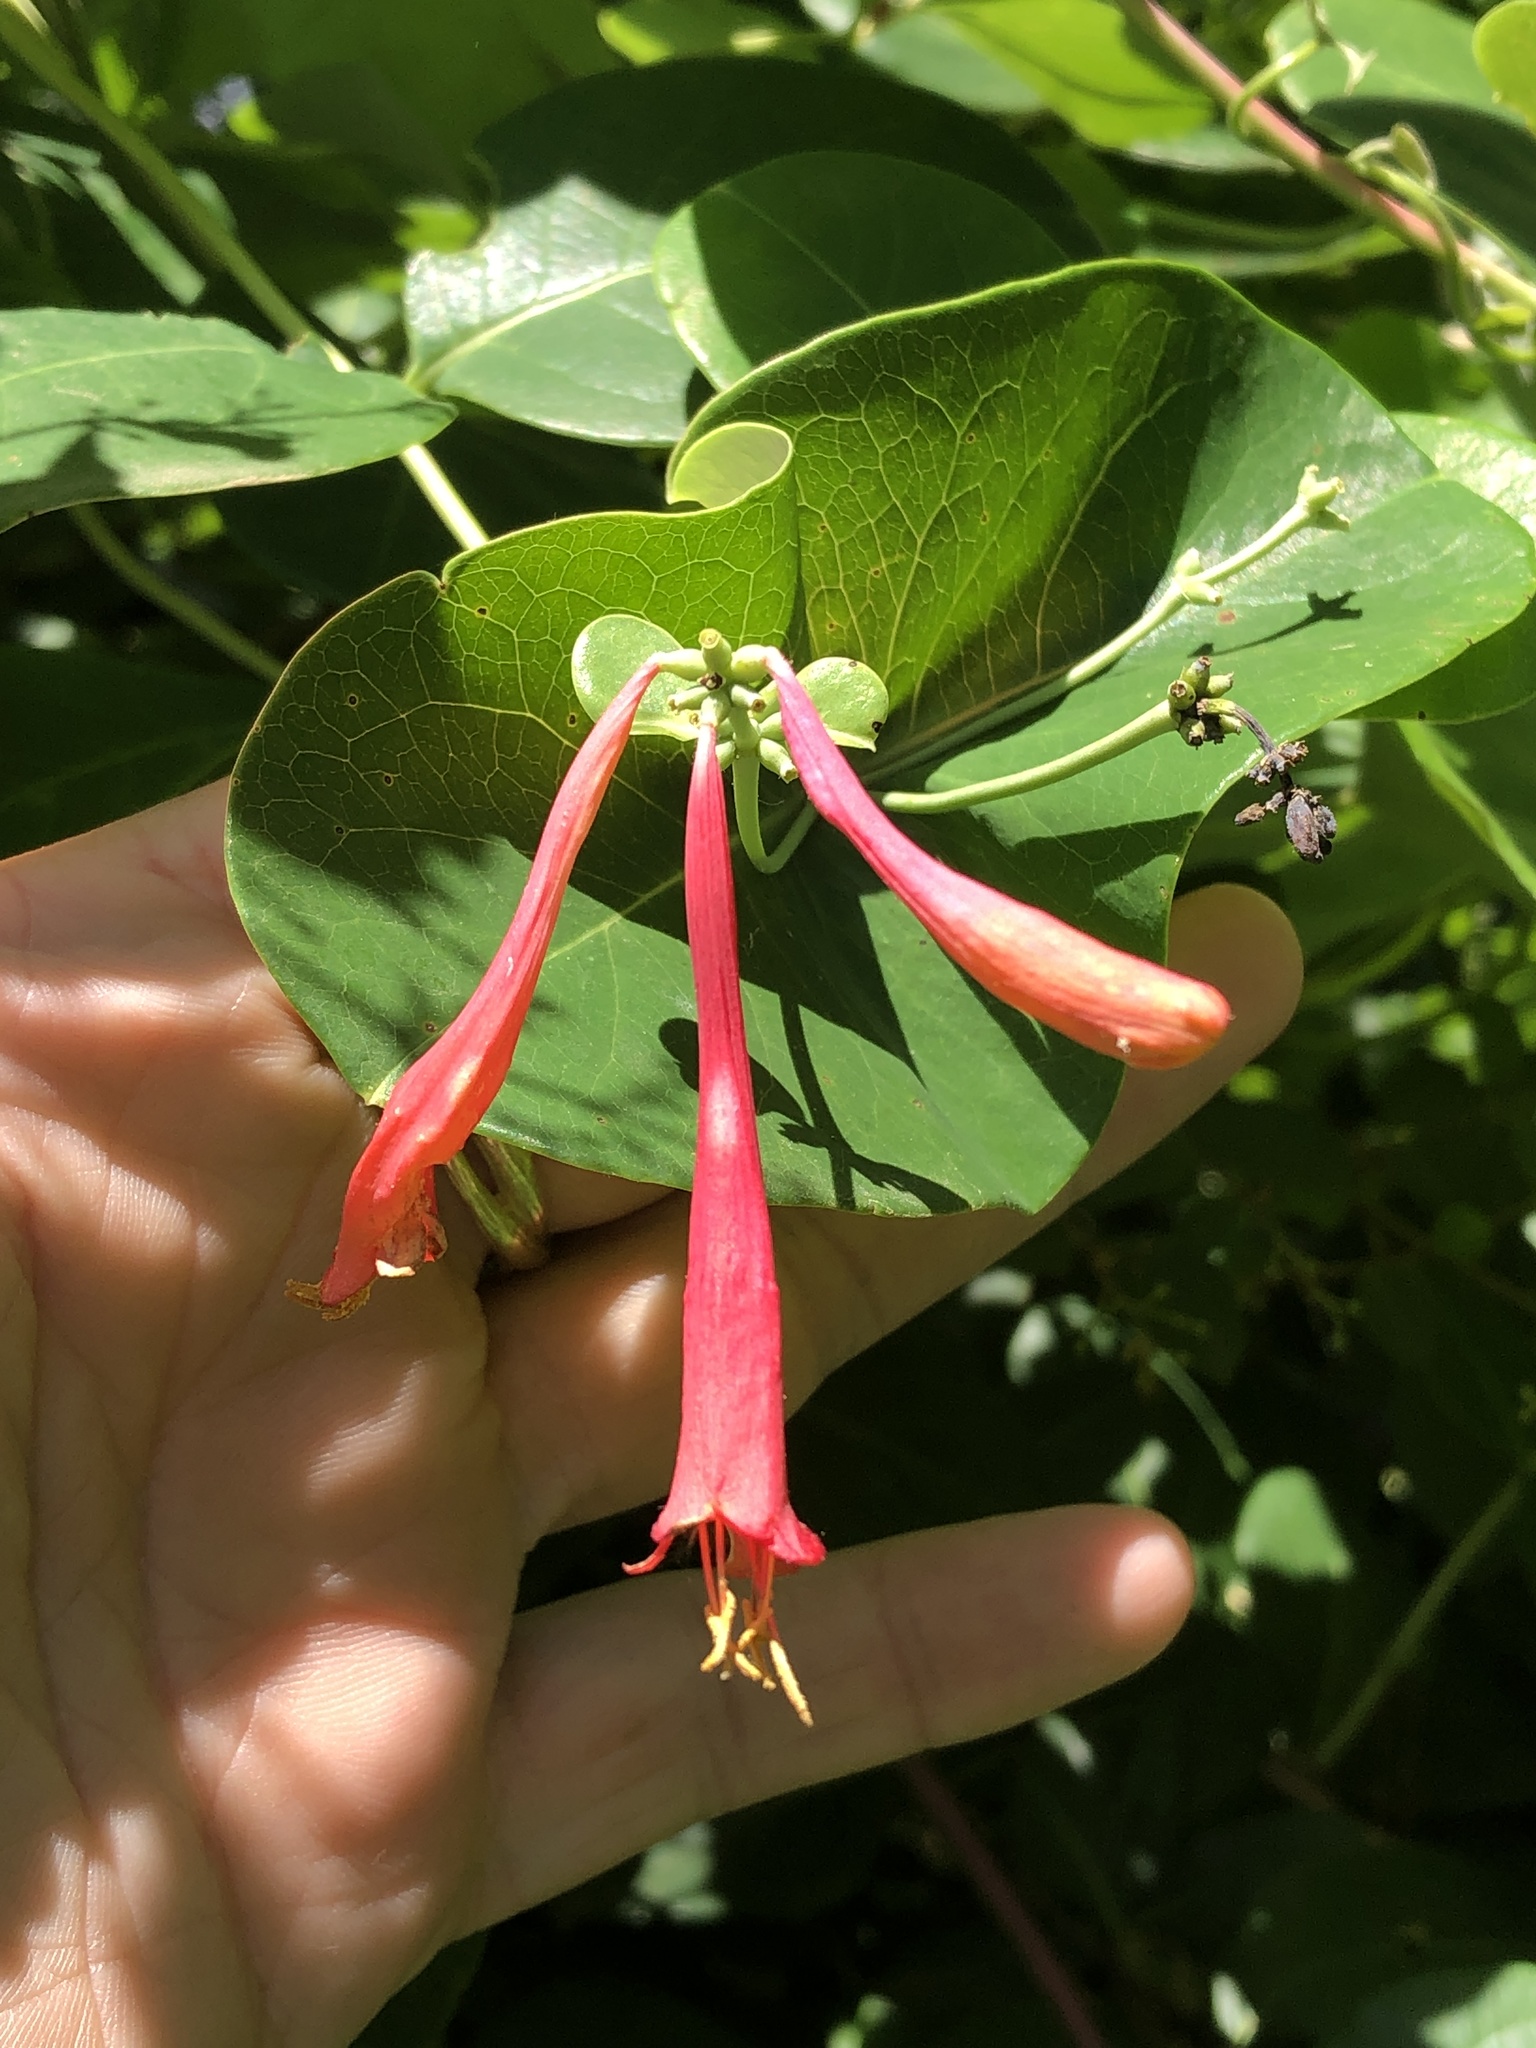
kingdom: Plantae
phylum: Tracheophyta
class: Magnoliopsida
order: Dipsacales
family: Caprifoliaceae
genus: Lonicera
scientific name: Lonicera sempervirens
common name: Coral honeysuckle
